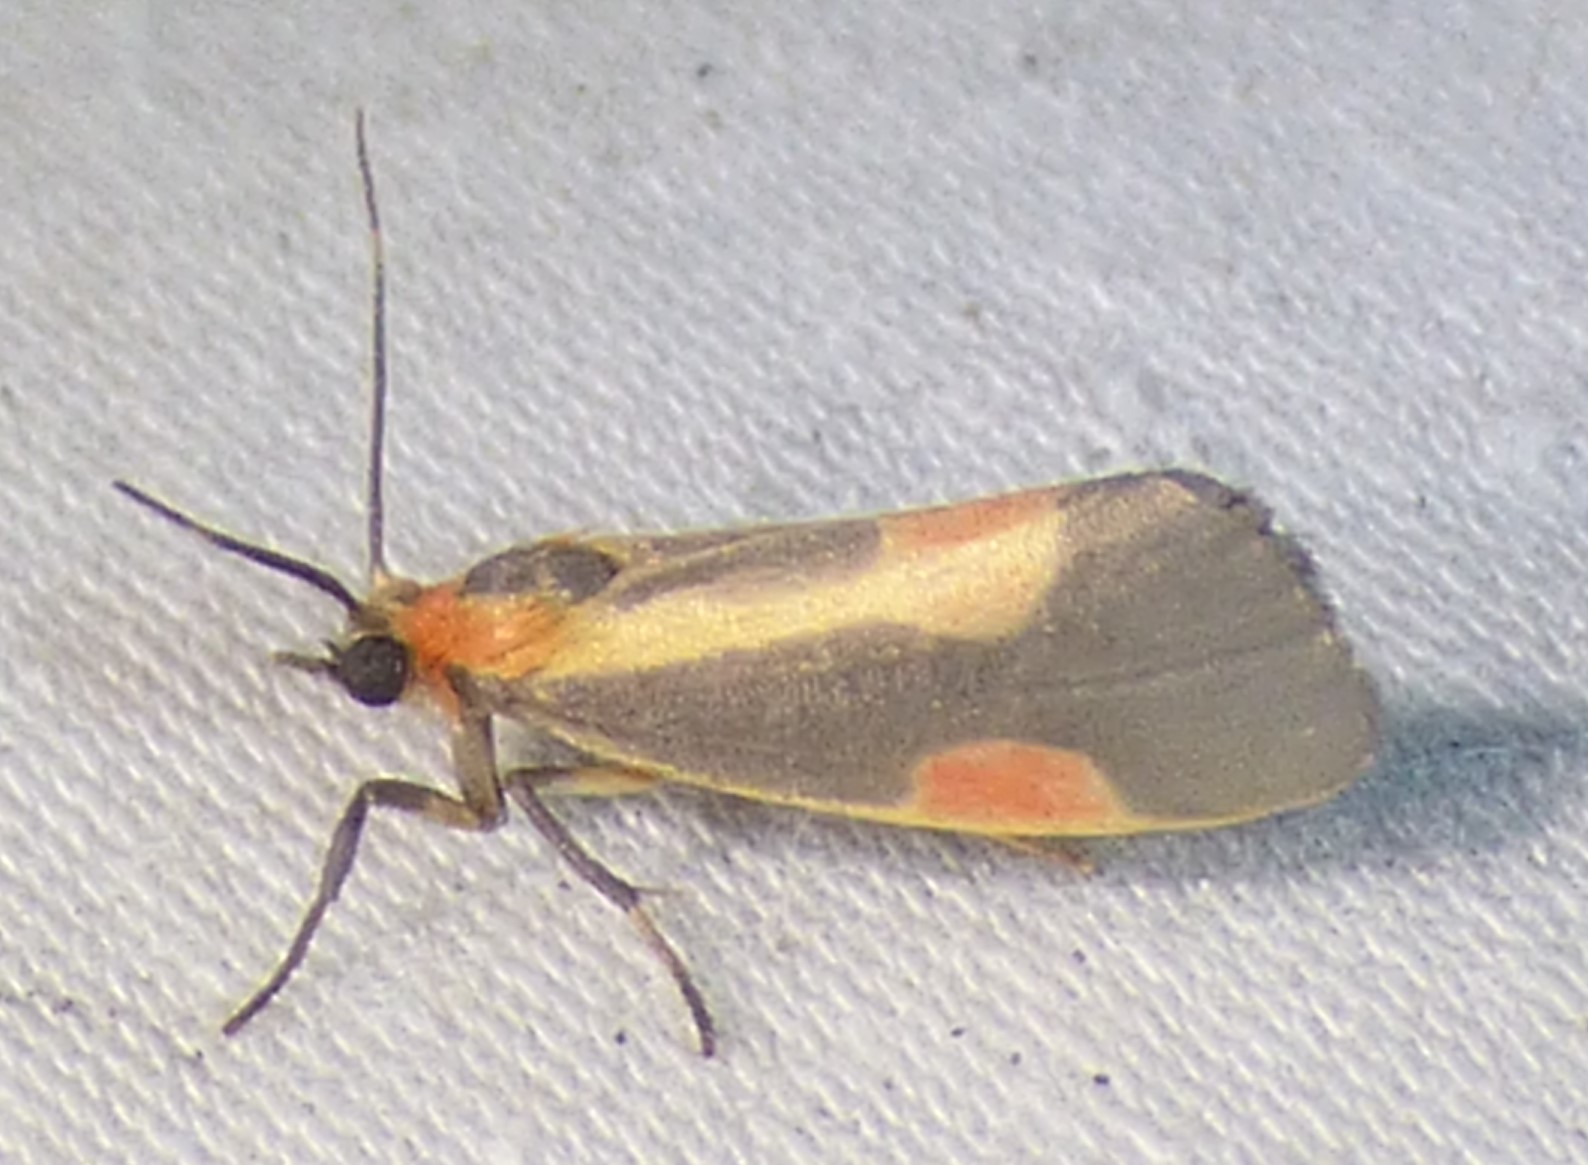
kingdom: Animalia
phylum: Arthropoda
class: Insecta
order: Lepidoptera
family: Erebidae
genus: Cisthene
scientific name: Cisthene packardii
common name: Packard's lichen moth
